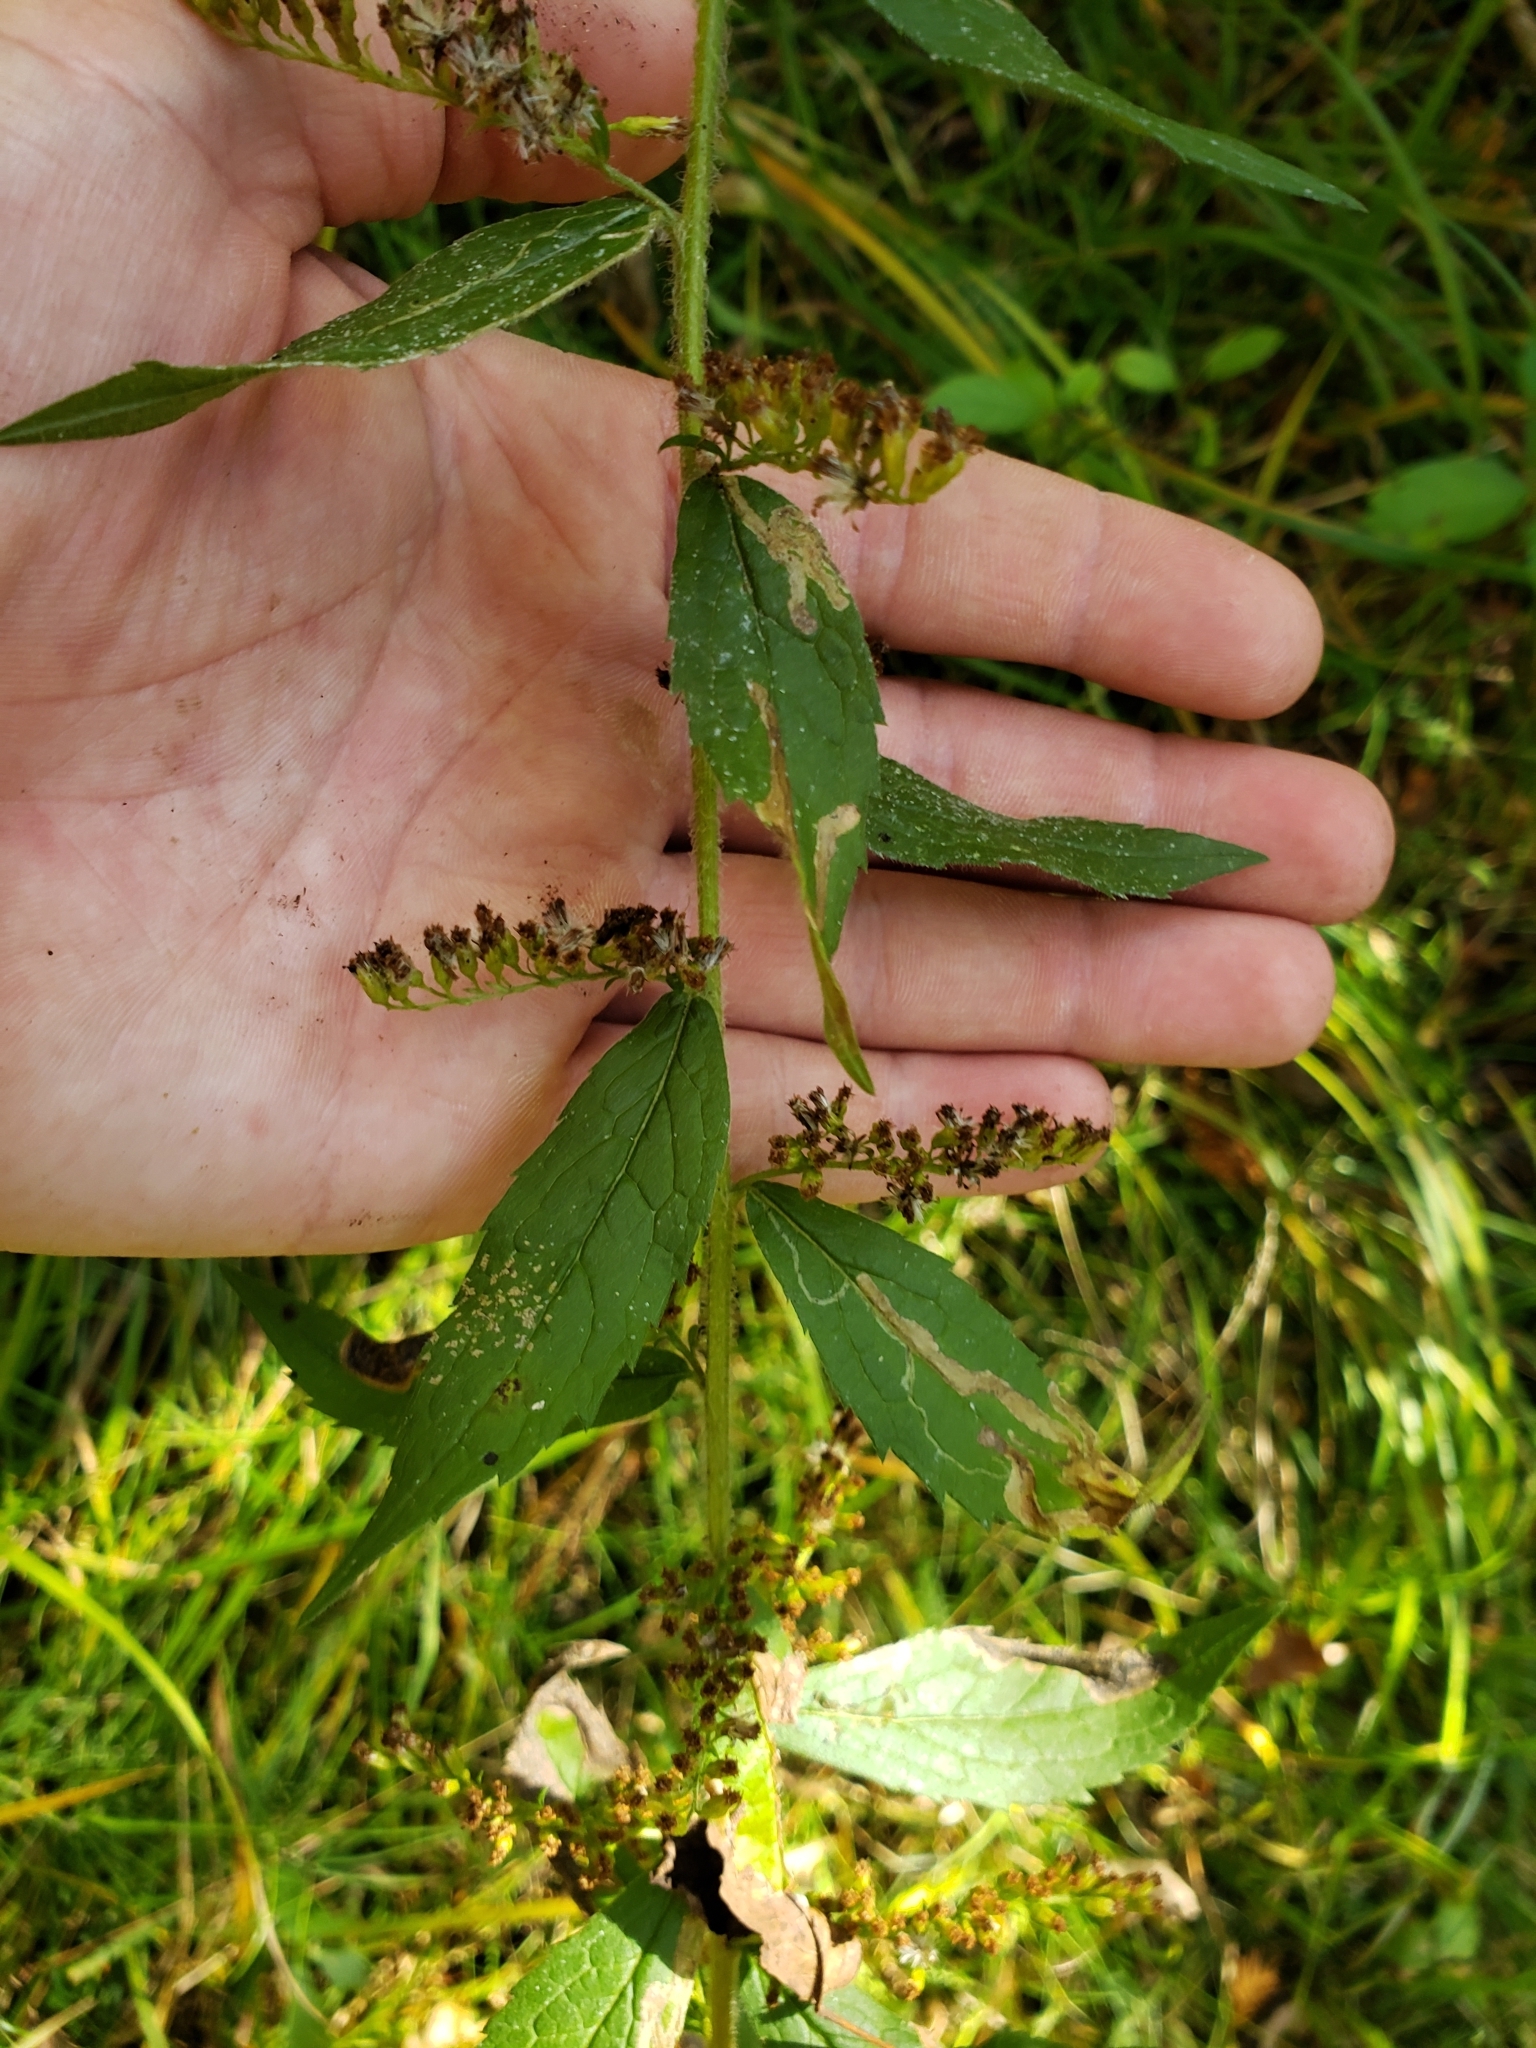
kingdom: Plantae
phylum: Tracheophyta
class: Magnoliopsida
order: Asterales
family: Asteraceae
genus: Solidago
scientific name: Solidago rugosa
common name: Rough-stemmed goldenrod
